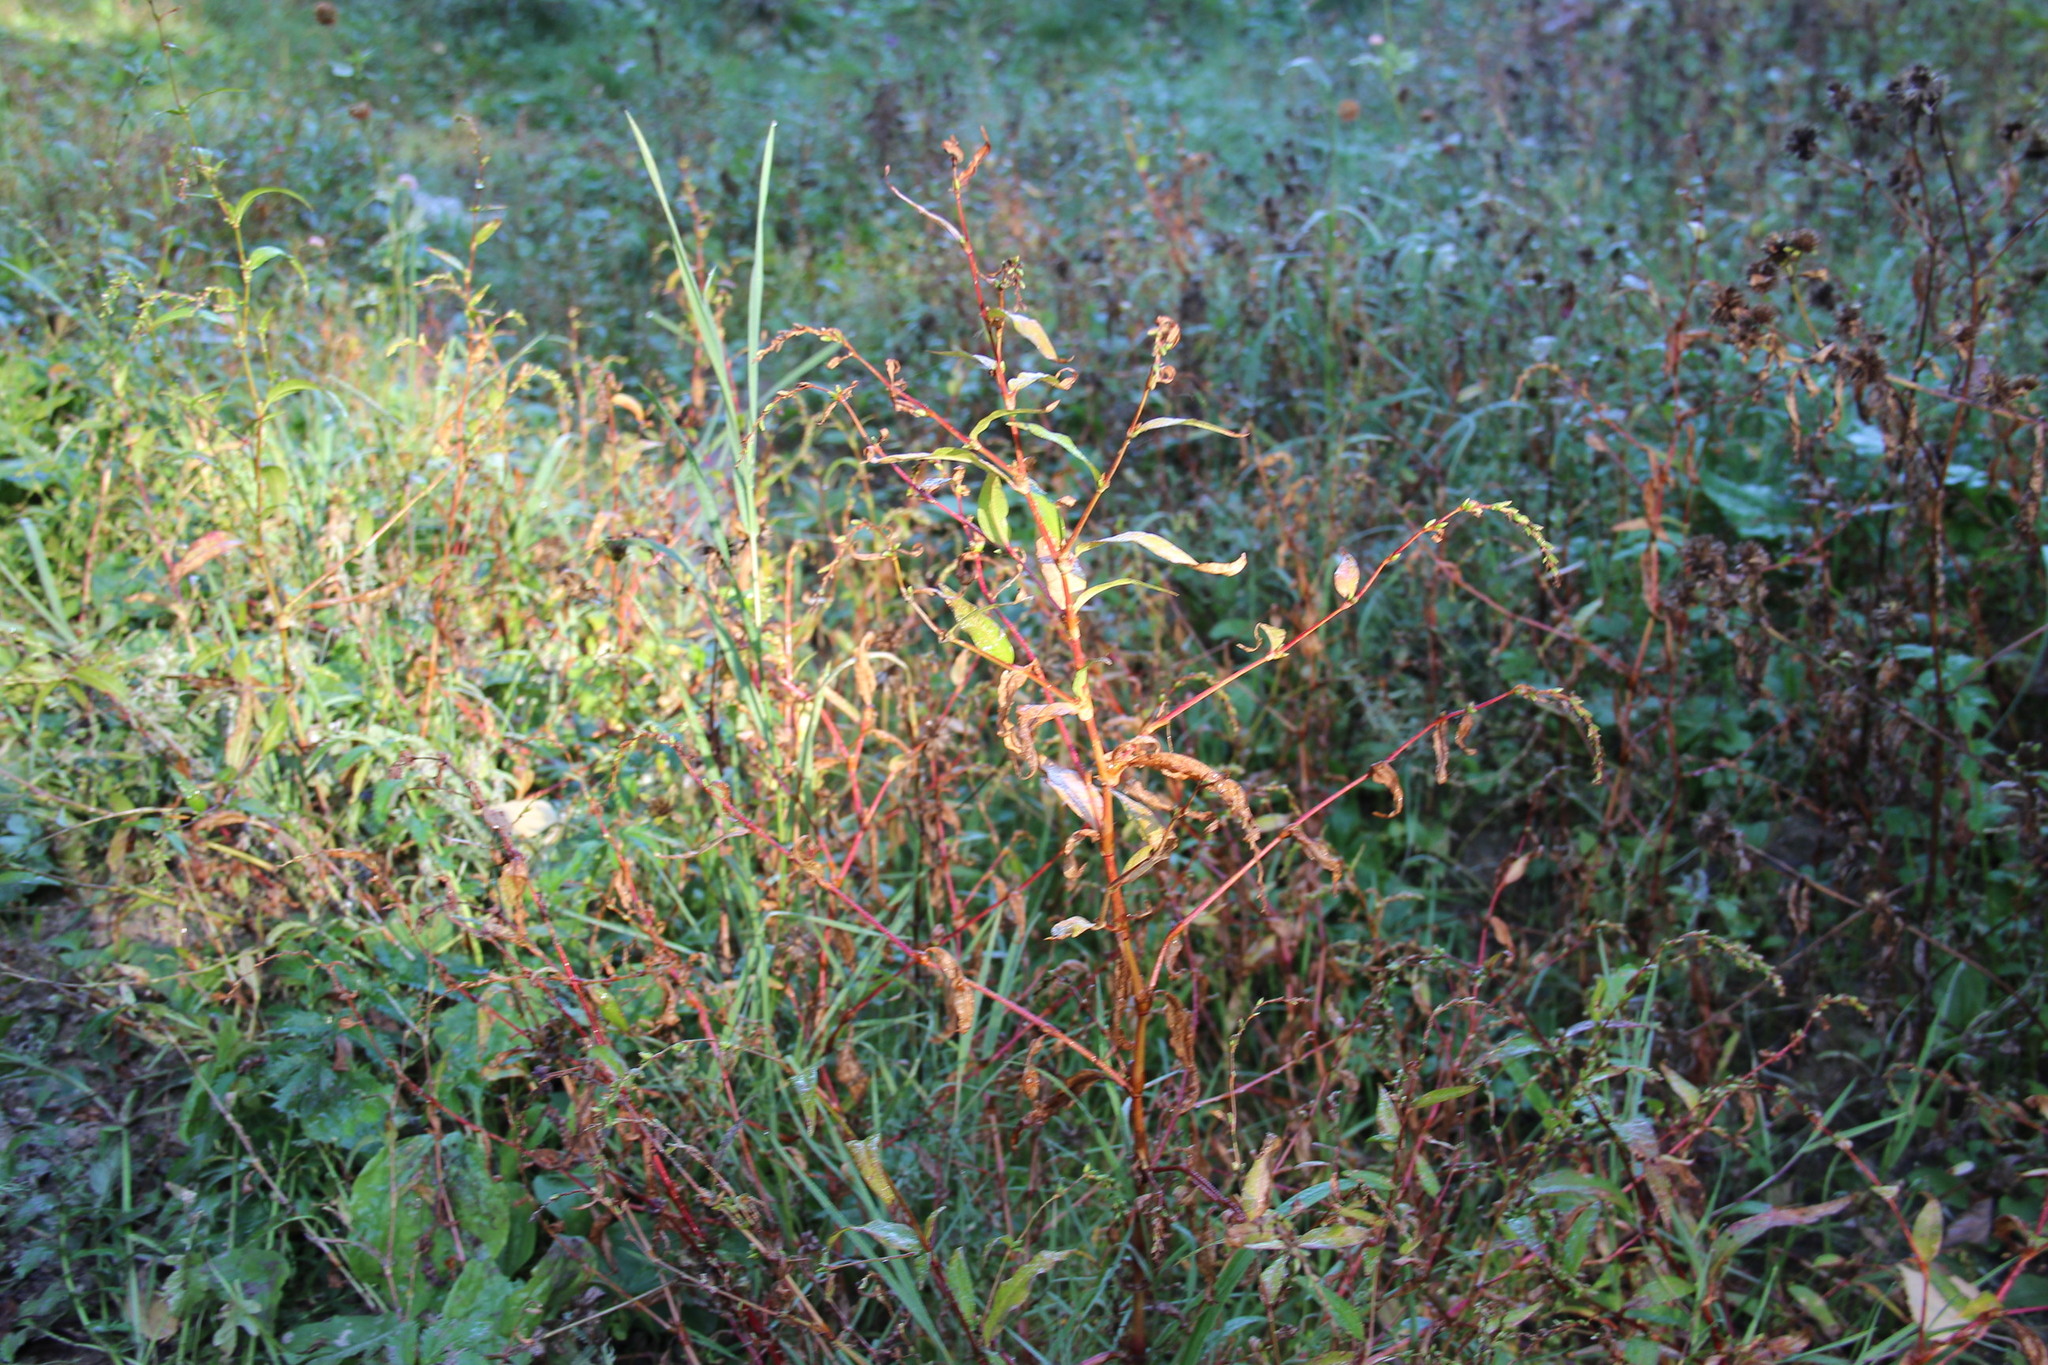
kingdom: Plantae
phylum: Tracheophyta
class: Magnoliopsida
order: Caryophyllales
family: Polygonaceae
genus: Persicaria
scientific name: Persicaria hydropiper
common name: Water-pepper
